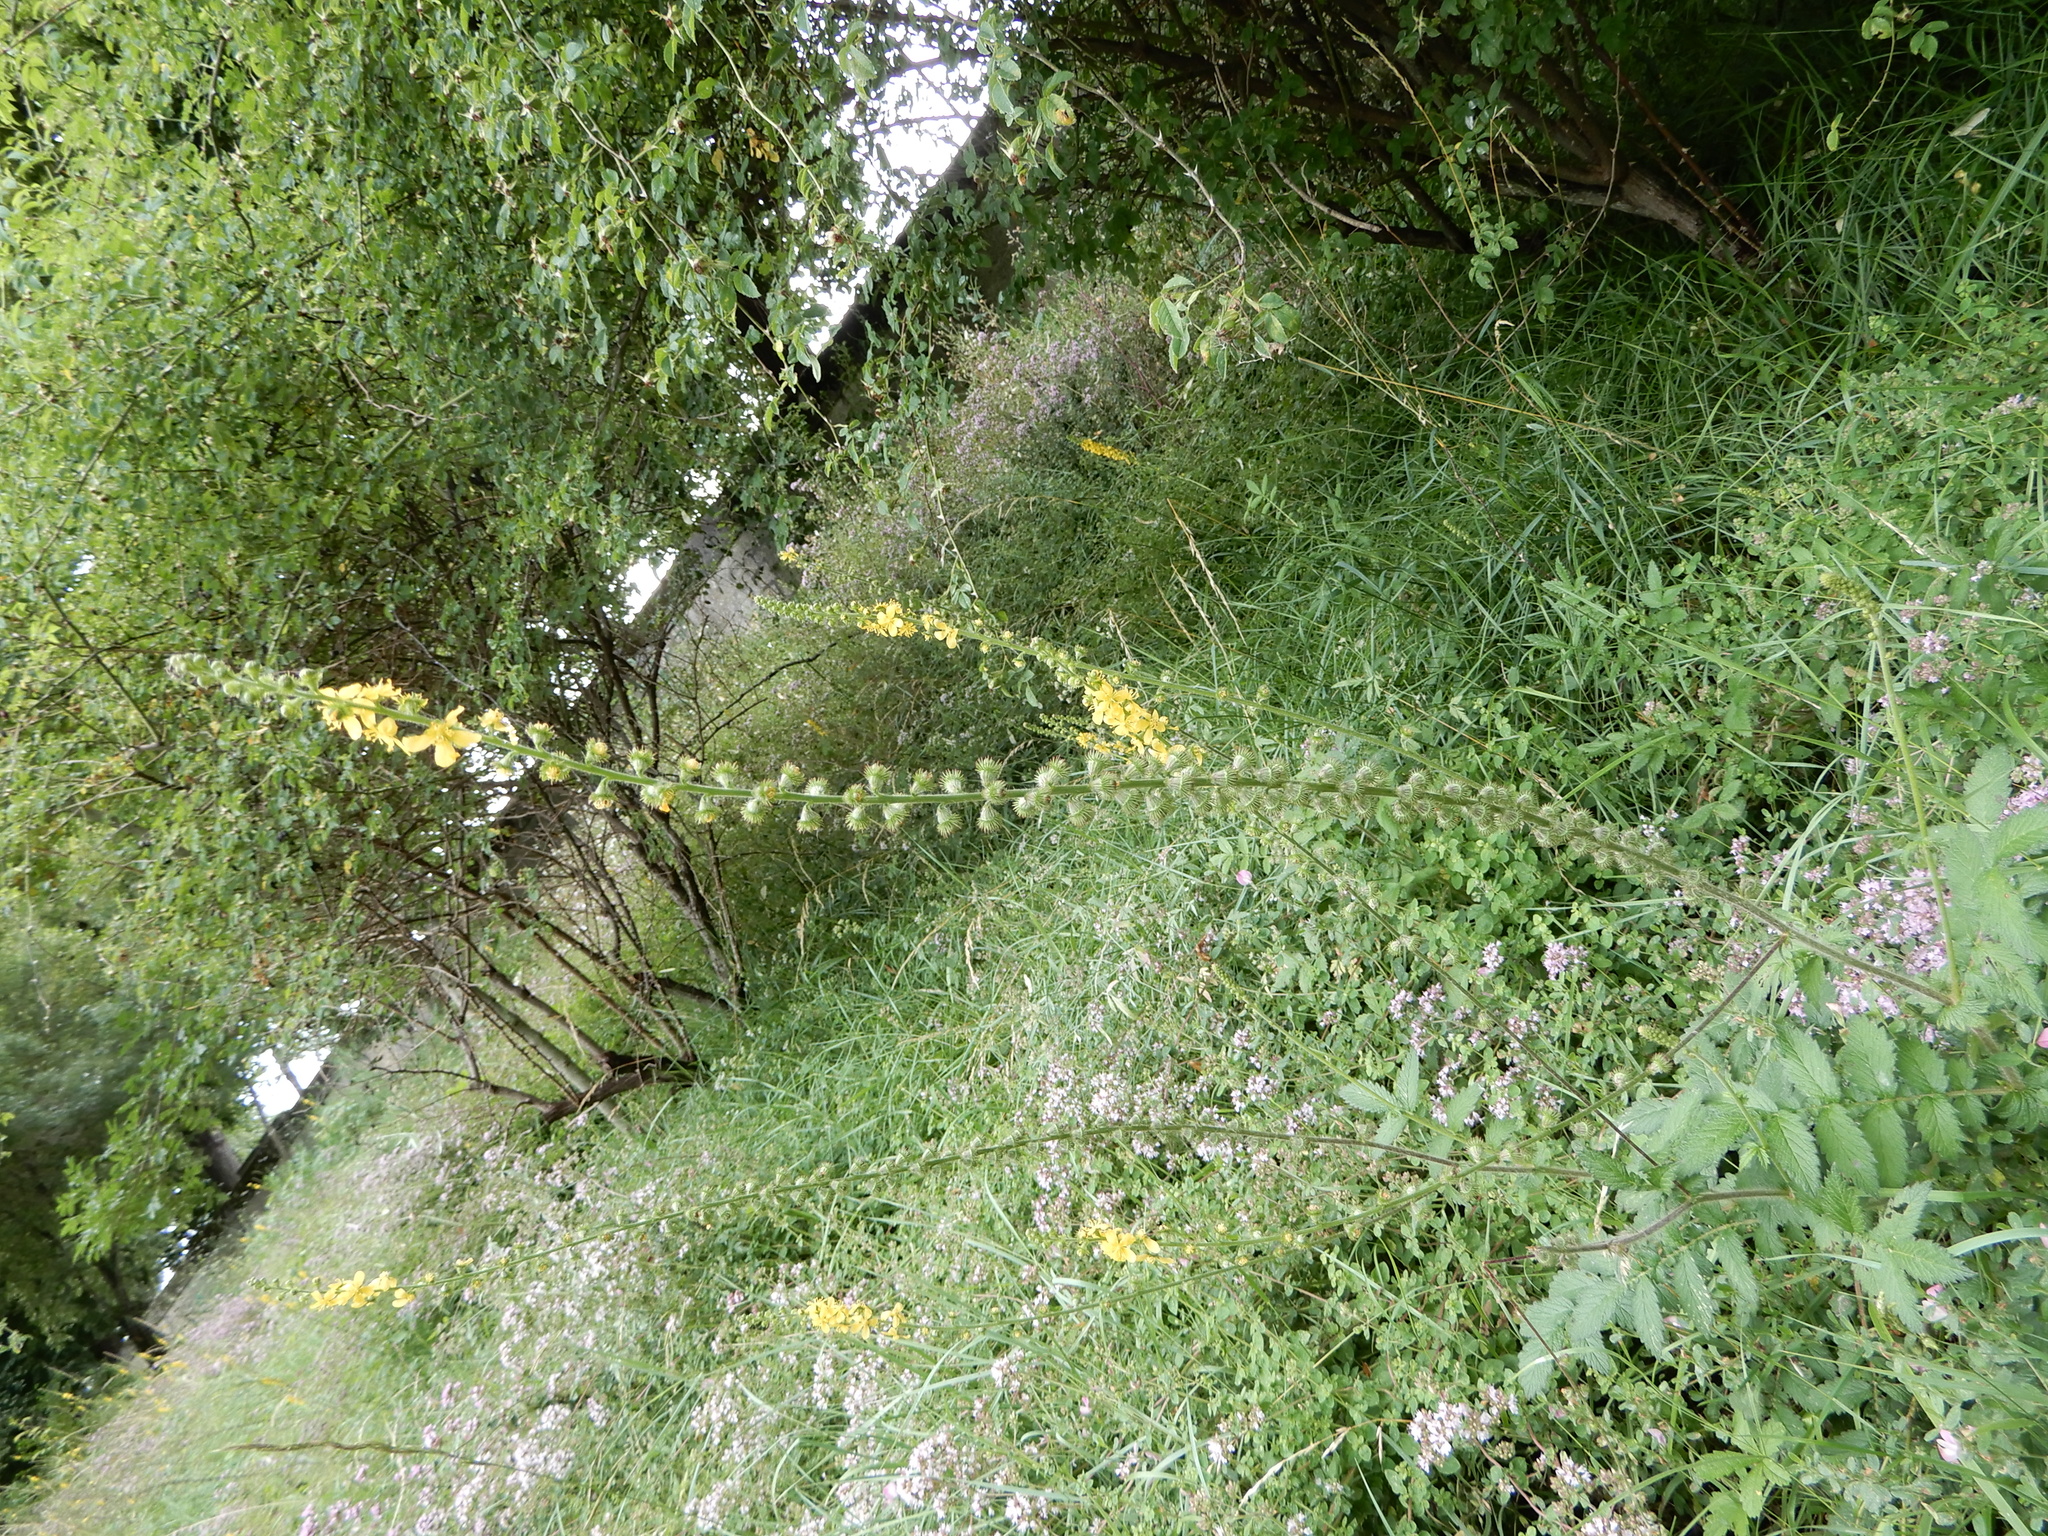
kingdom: Plantae
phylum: Tracheophyta
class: Magnoliopsida
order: Rosales
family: Rosaceae
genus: Agrimonia
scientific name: Agrimonia eupatoria
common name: Agrimony
